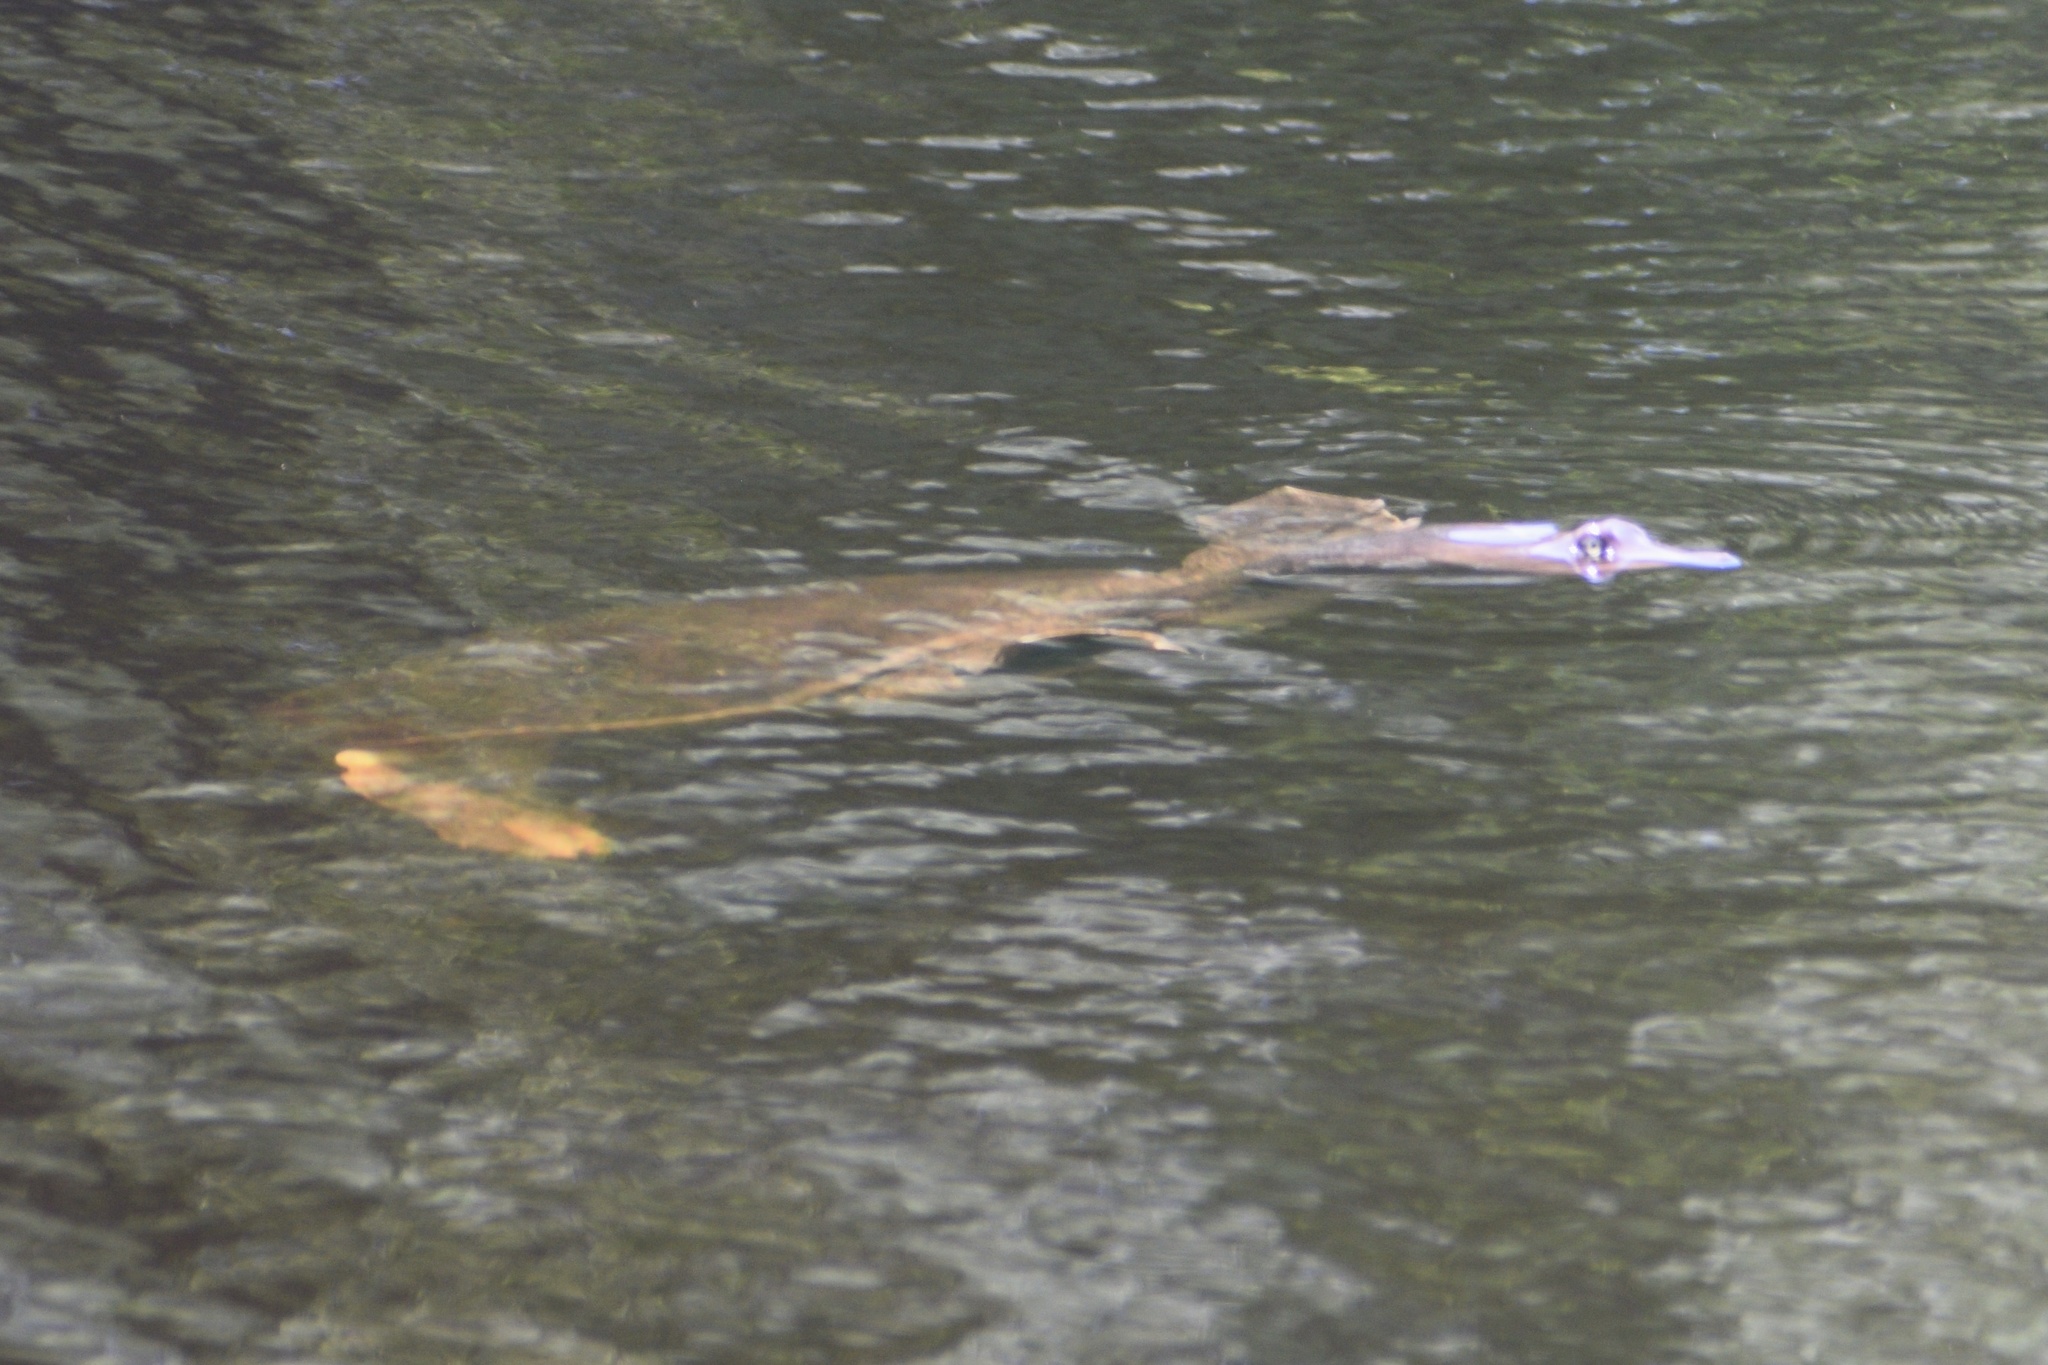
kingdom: Animalia
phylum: Chordata
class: Testudines
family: Trionychidae
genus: Apalone
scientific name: Apalone ferox
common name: Florida softshell turtle
